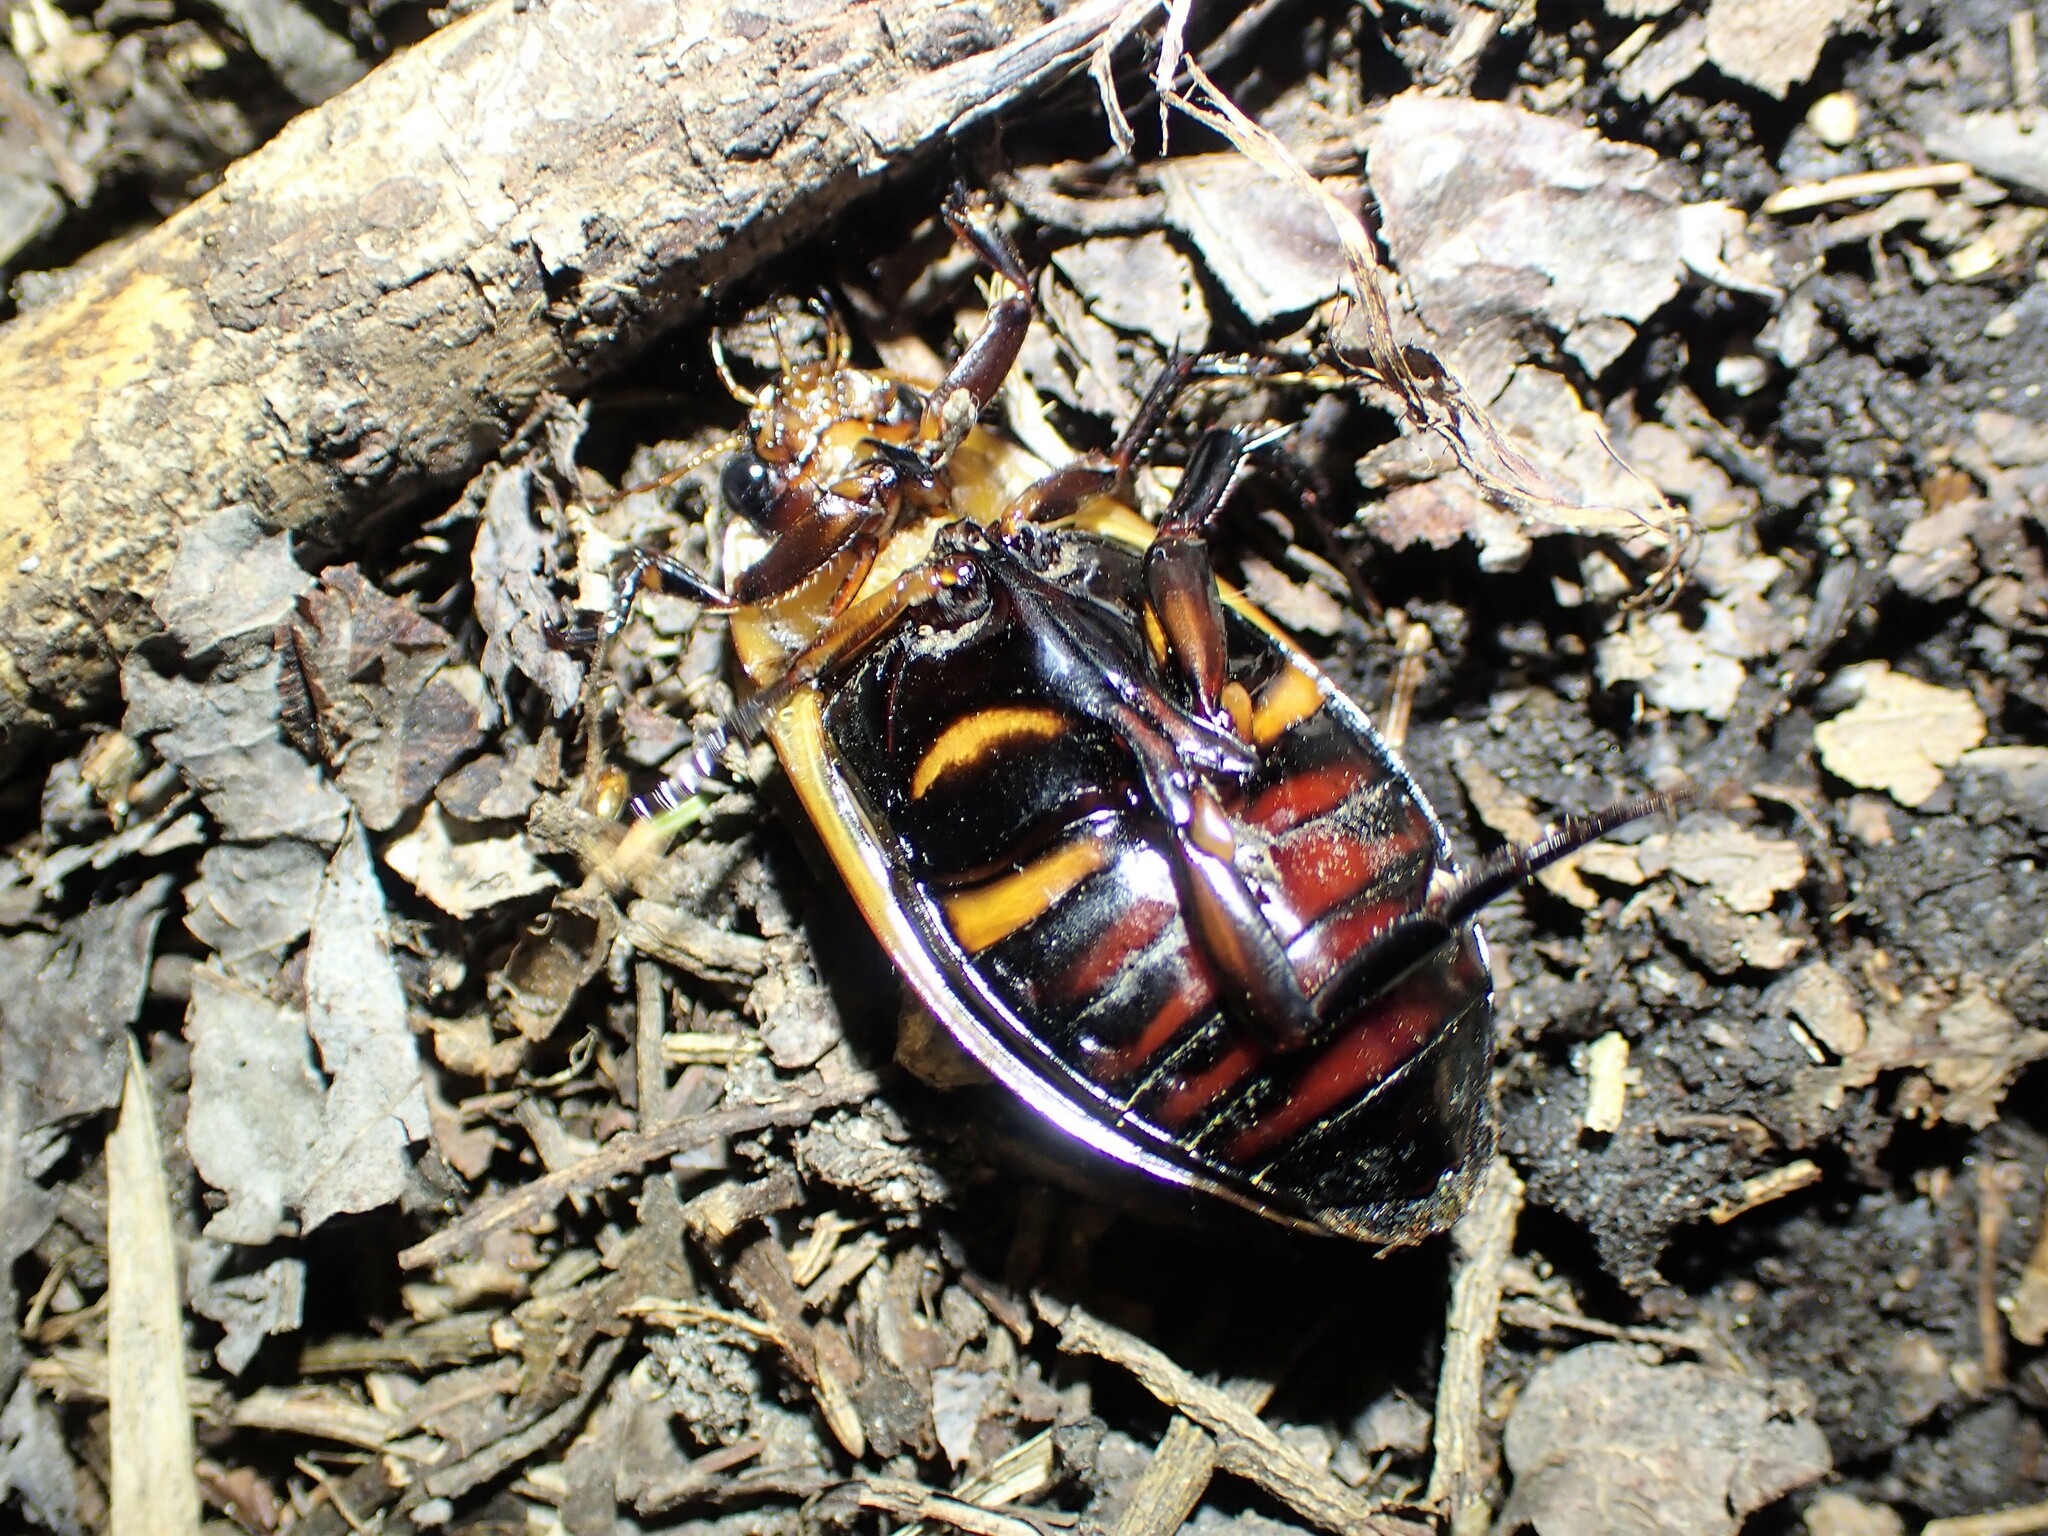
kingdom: Animalia
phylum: Arthropoda
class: Insecta
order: Coleoptera
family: Dytiscidae
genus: Dytiscus
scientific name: Dytiscus harrisii
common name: Harris's diving beetle
